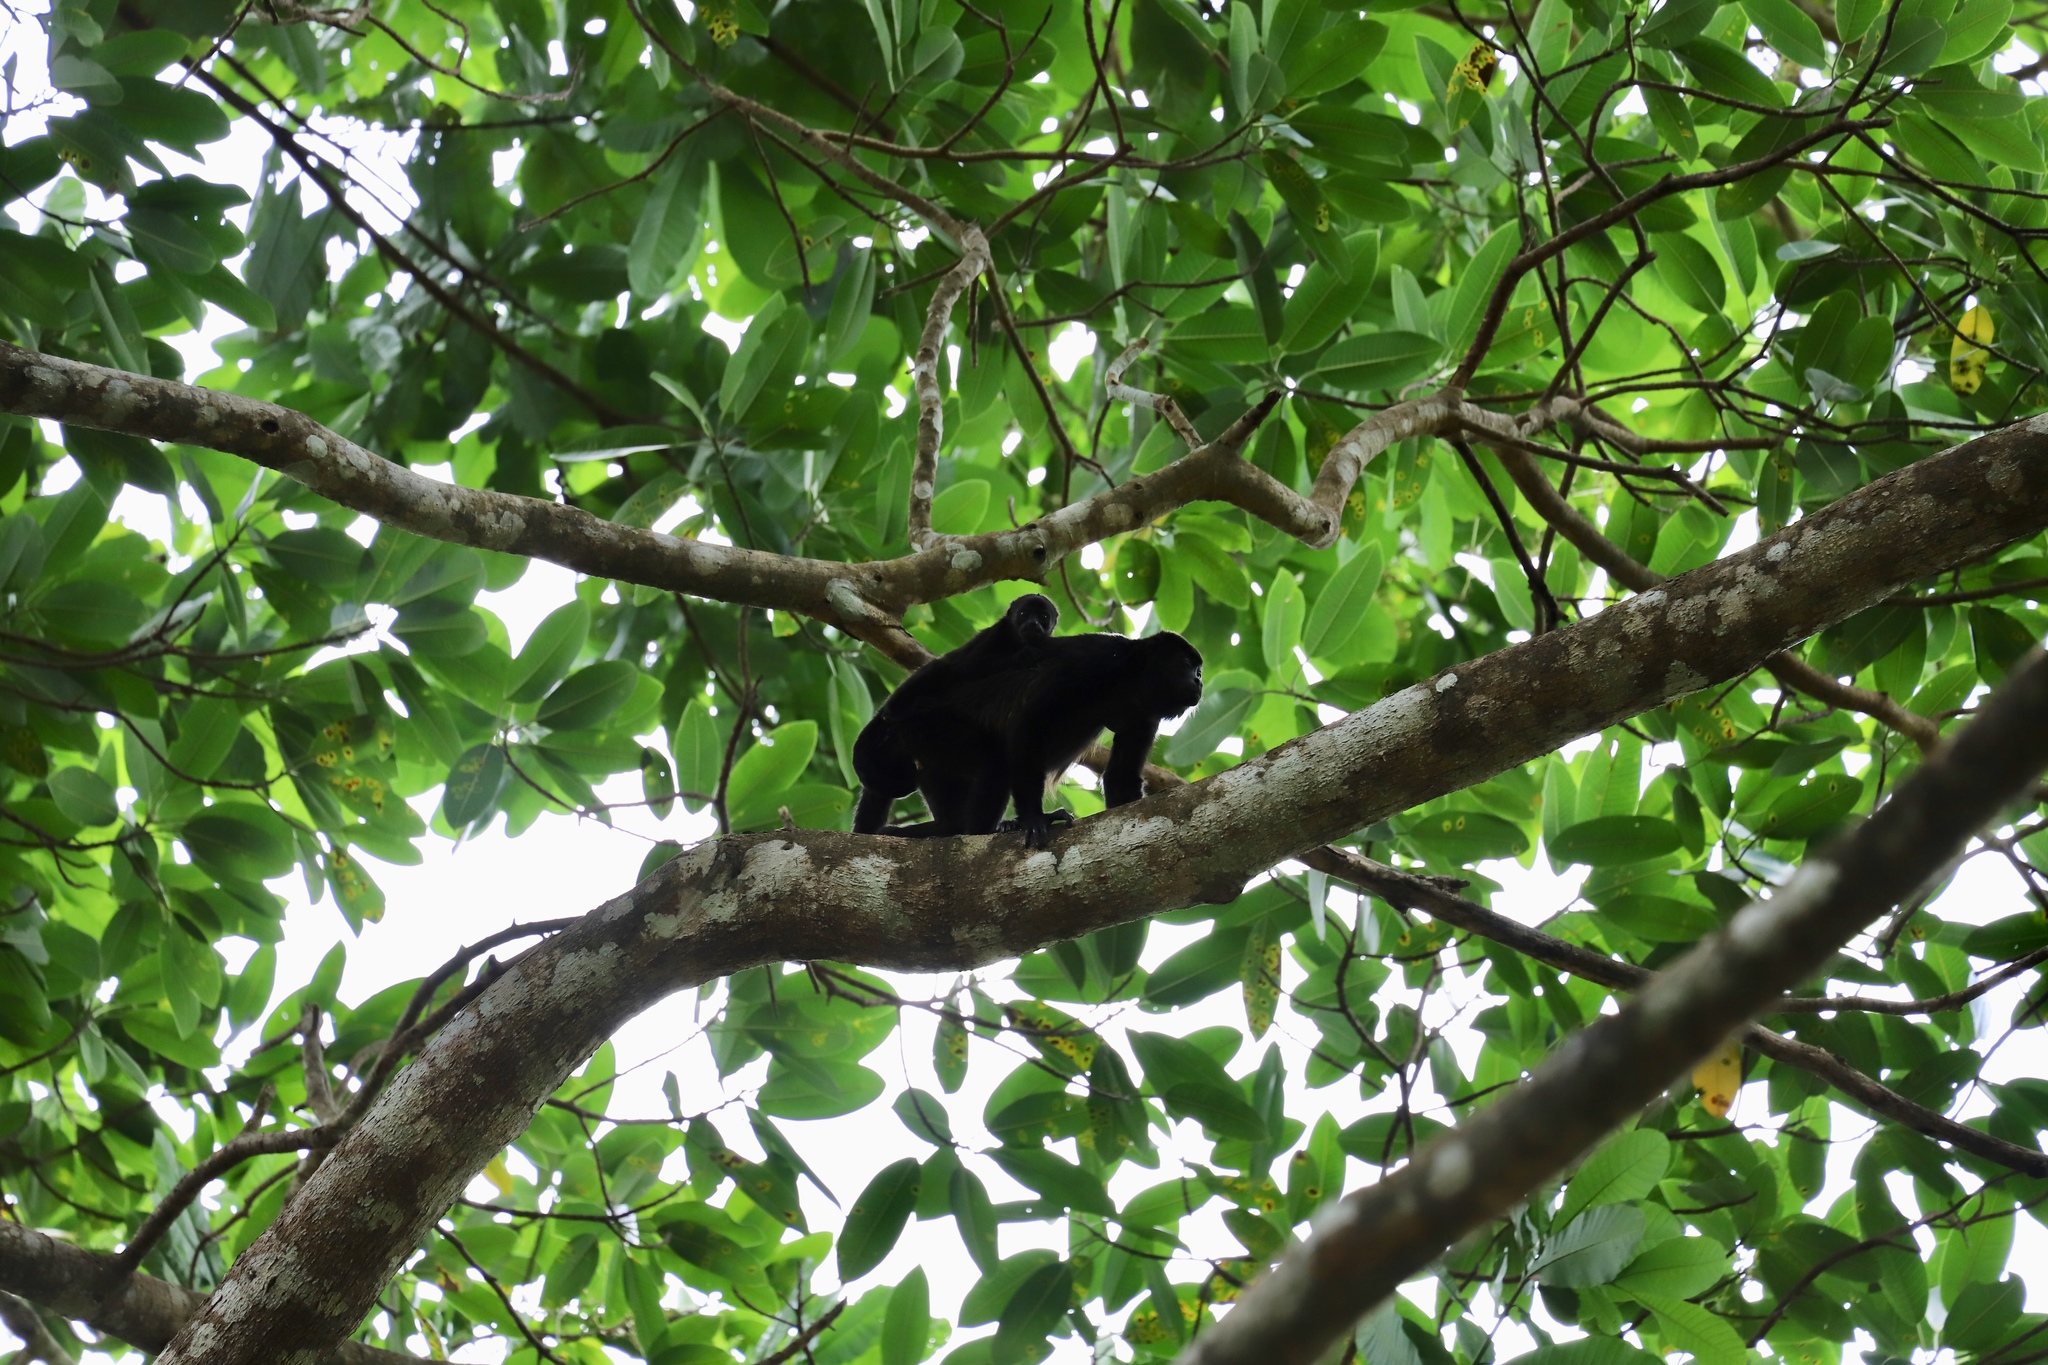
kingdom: Animalia
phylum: Chordata
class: Mammalia
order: Primates
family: Atelidae
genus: Alouatta
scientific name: Alouatta palliata
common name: Mantled howler
